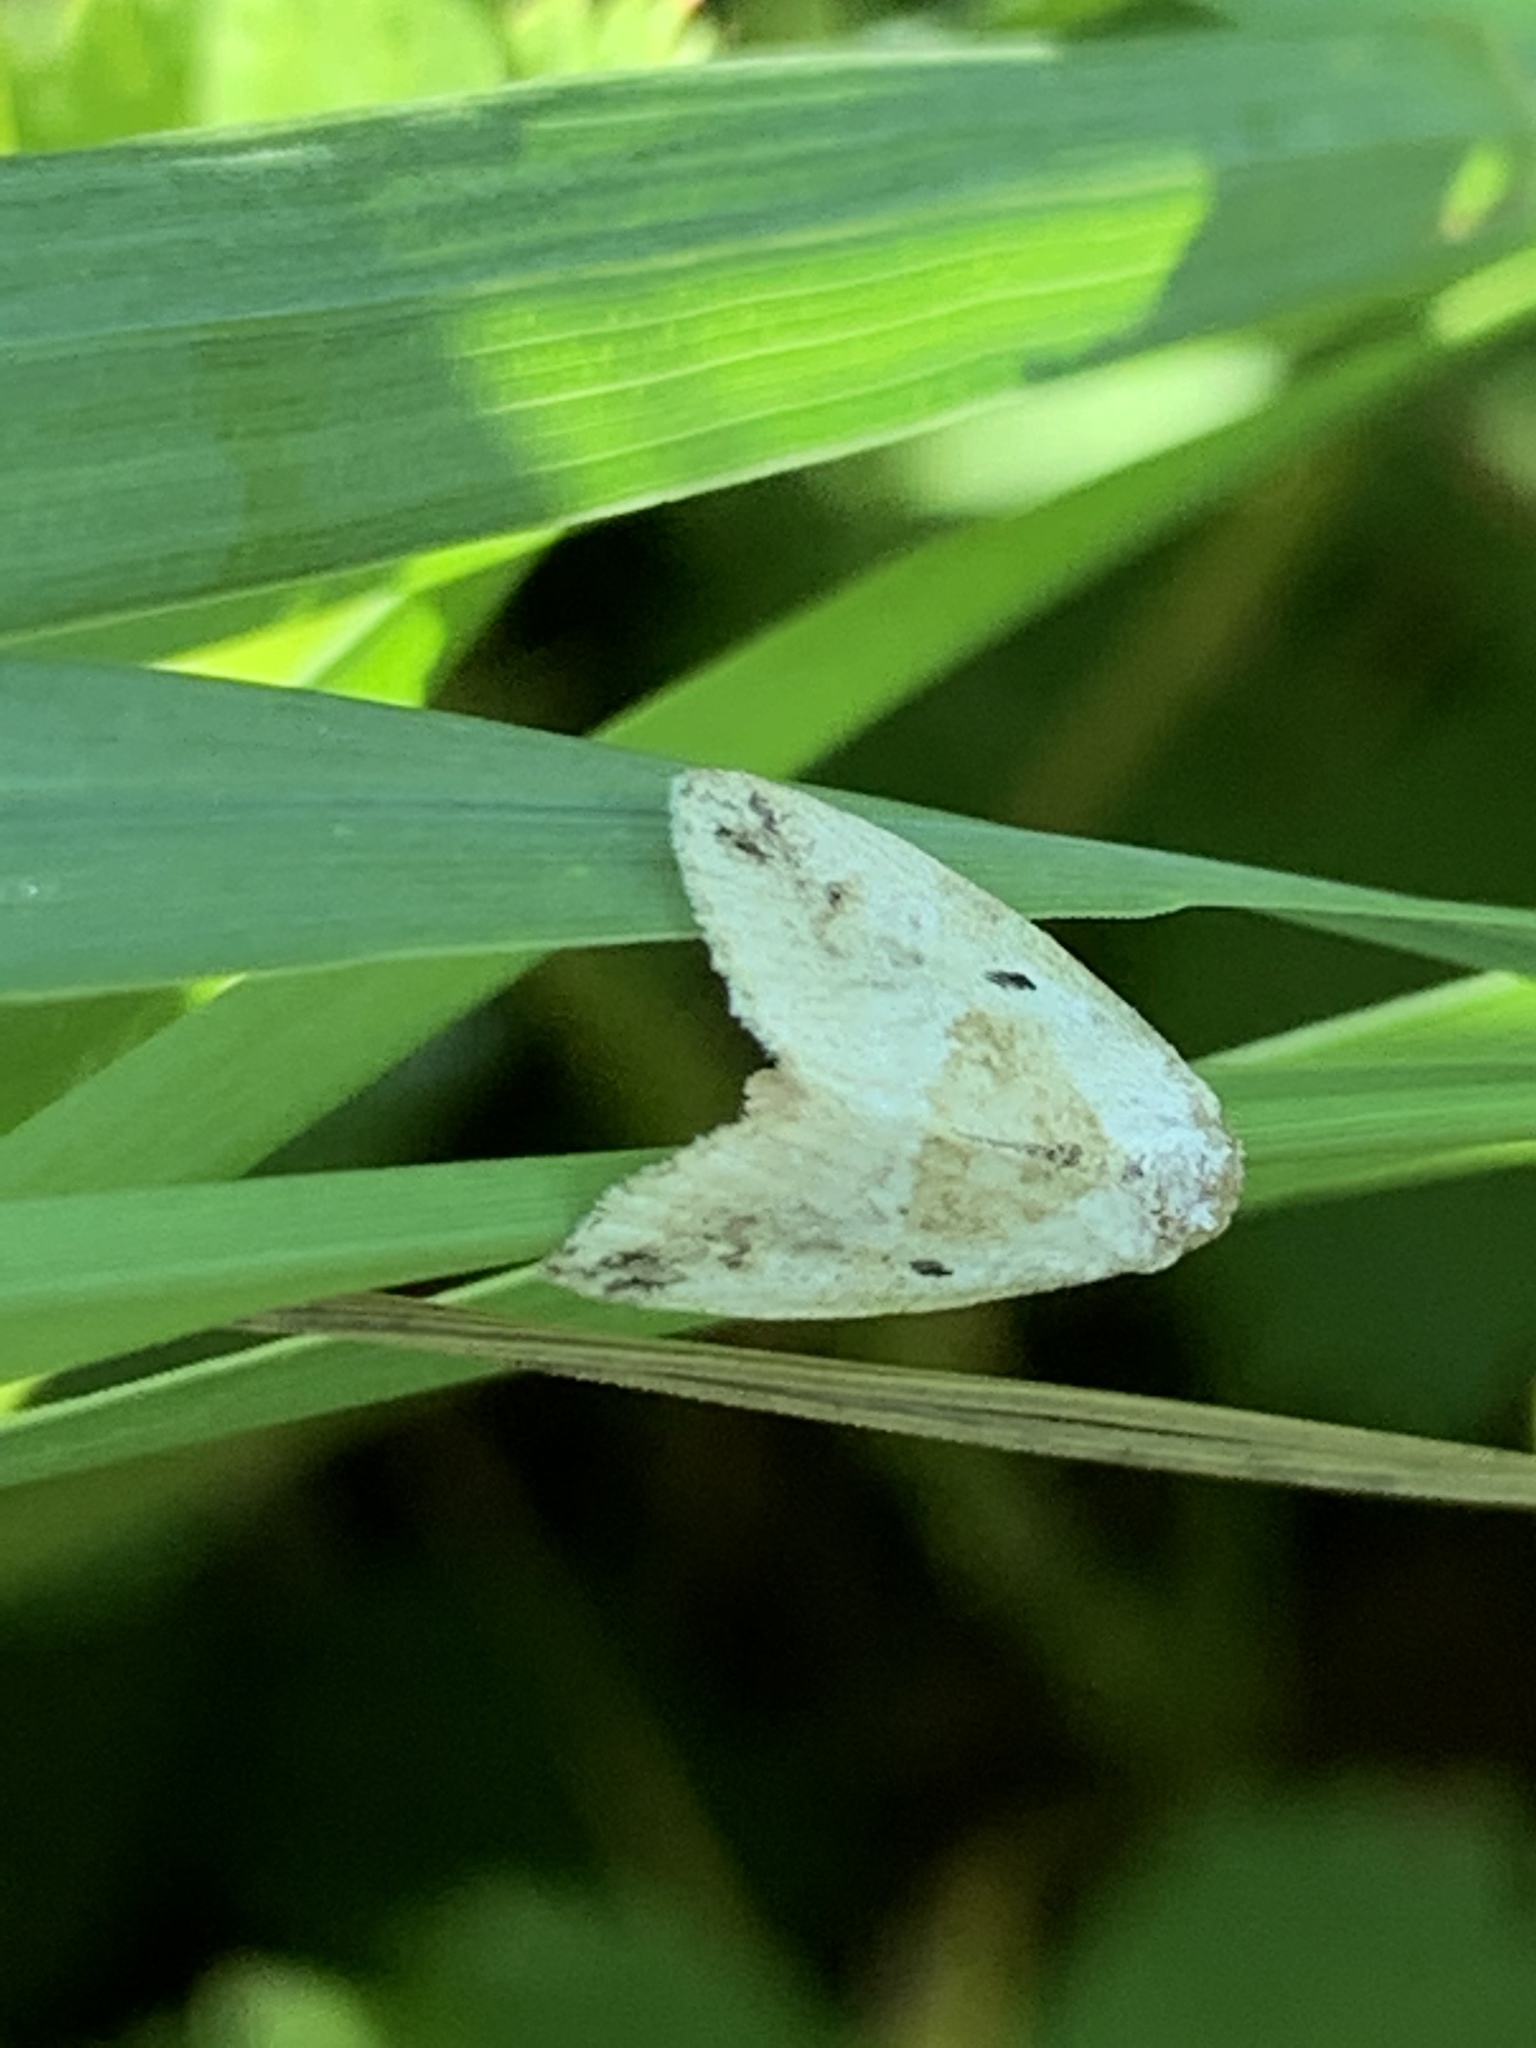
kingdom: Animalia
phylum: Arthropoda
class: Insecta
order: Lepidoptera
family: Noctuidae
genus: Maliattha
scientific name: Maliattha synochitis
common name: Black-dotted glyph
